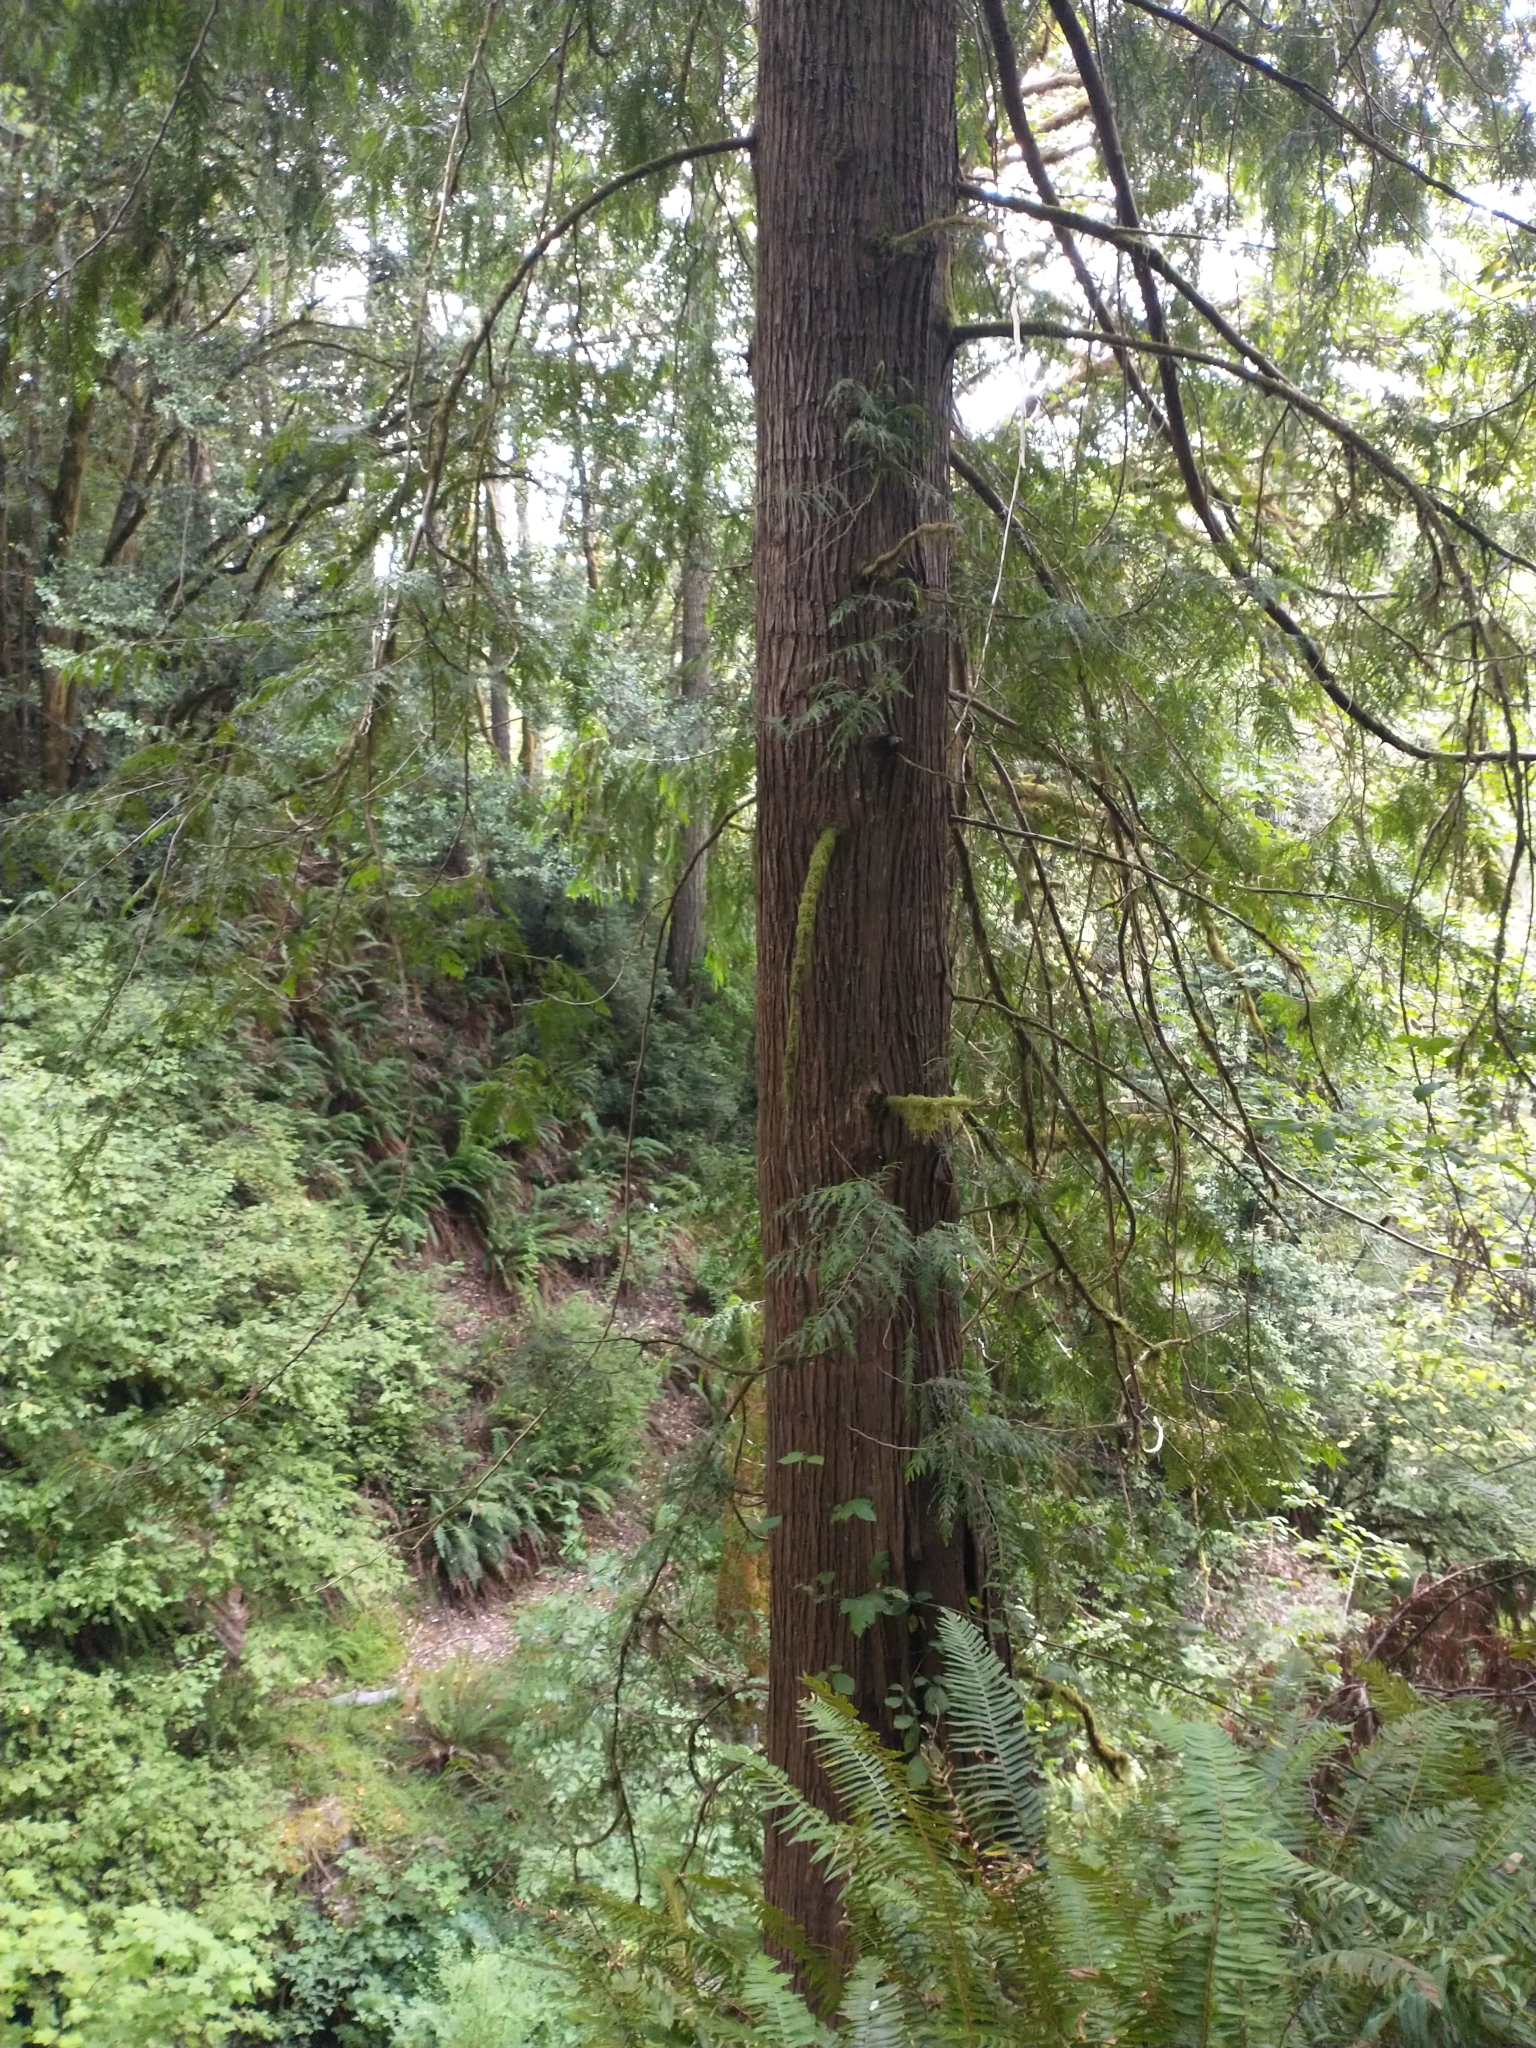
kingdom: Plantae
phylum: Tracheophyta
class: Pinopsida
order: Pinales
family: Cupressaceae
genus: Thuja
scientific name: Thuja plicata
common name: Western red-cedar
